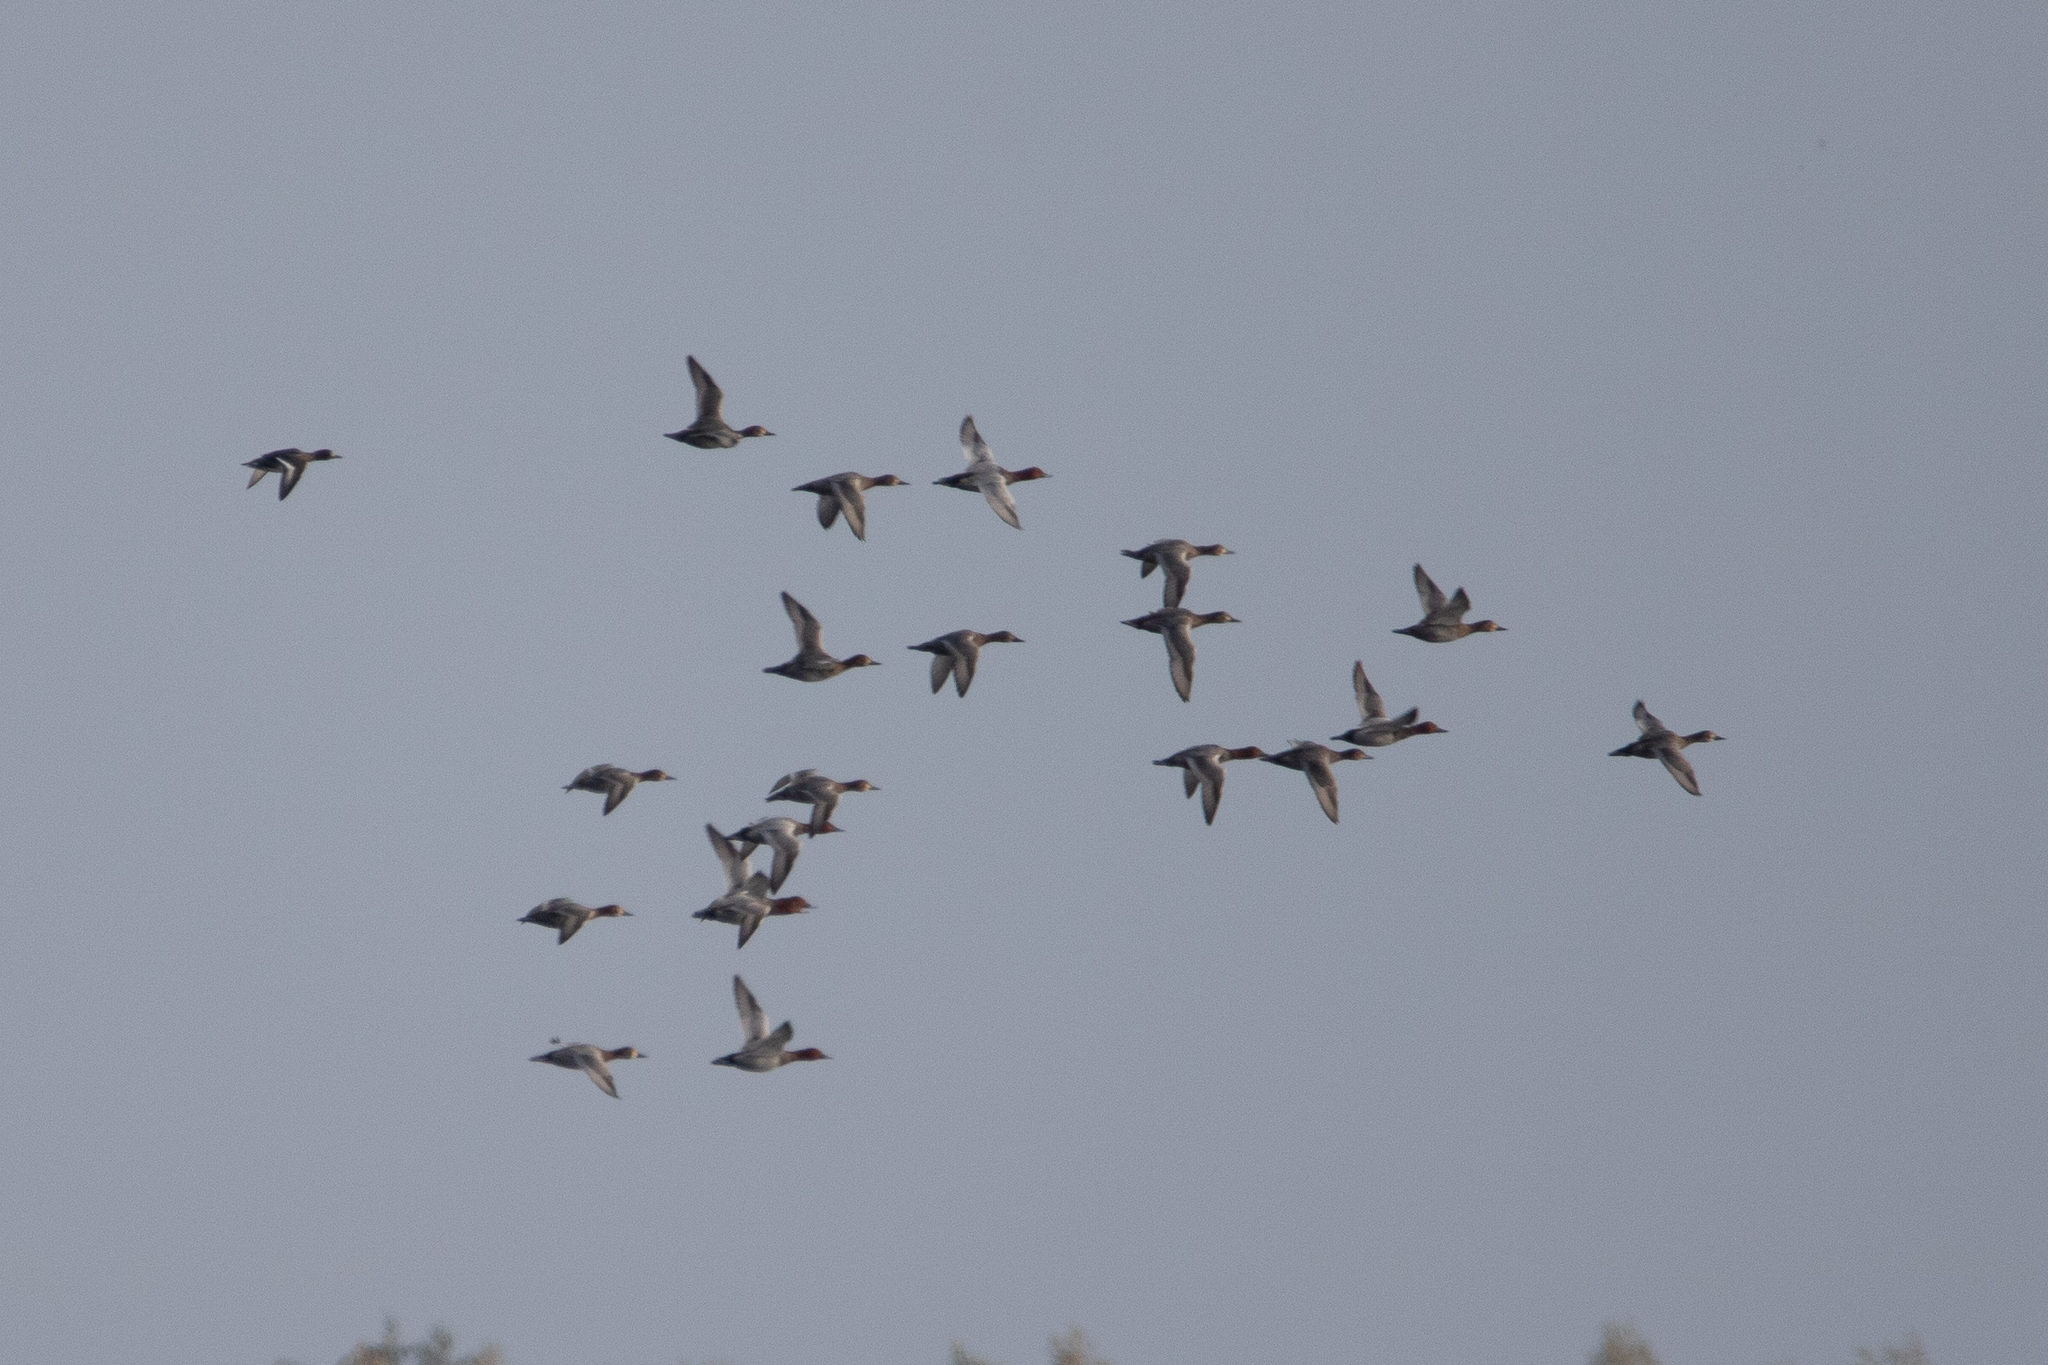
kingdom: Animalia
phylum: Chordata
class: Aves
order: Anseriformes
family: Anatidae
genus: Aythya
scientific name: Aythya ferina
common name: Common pochard
